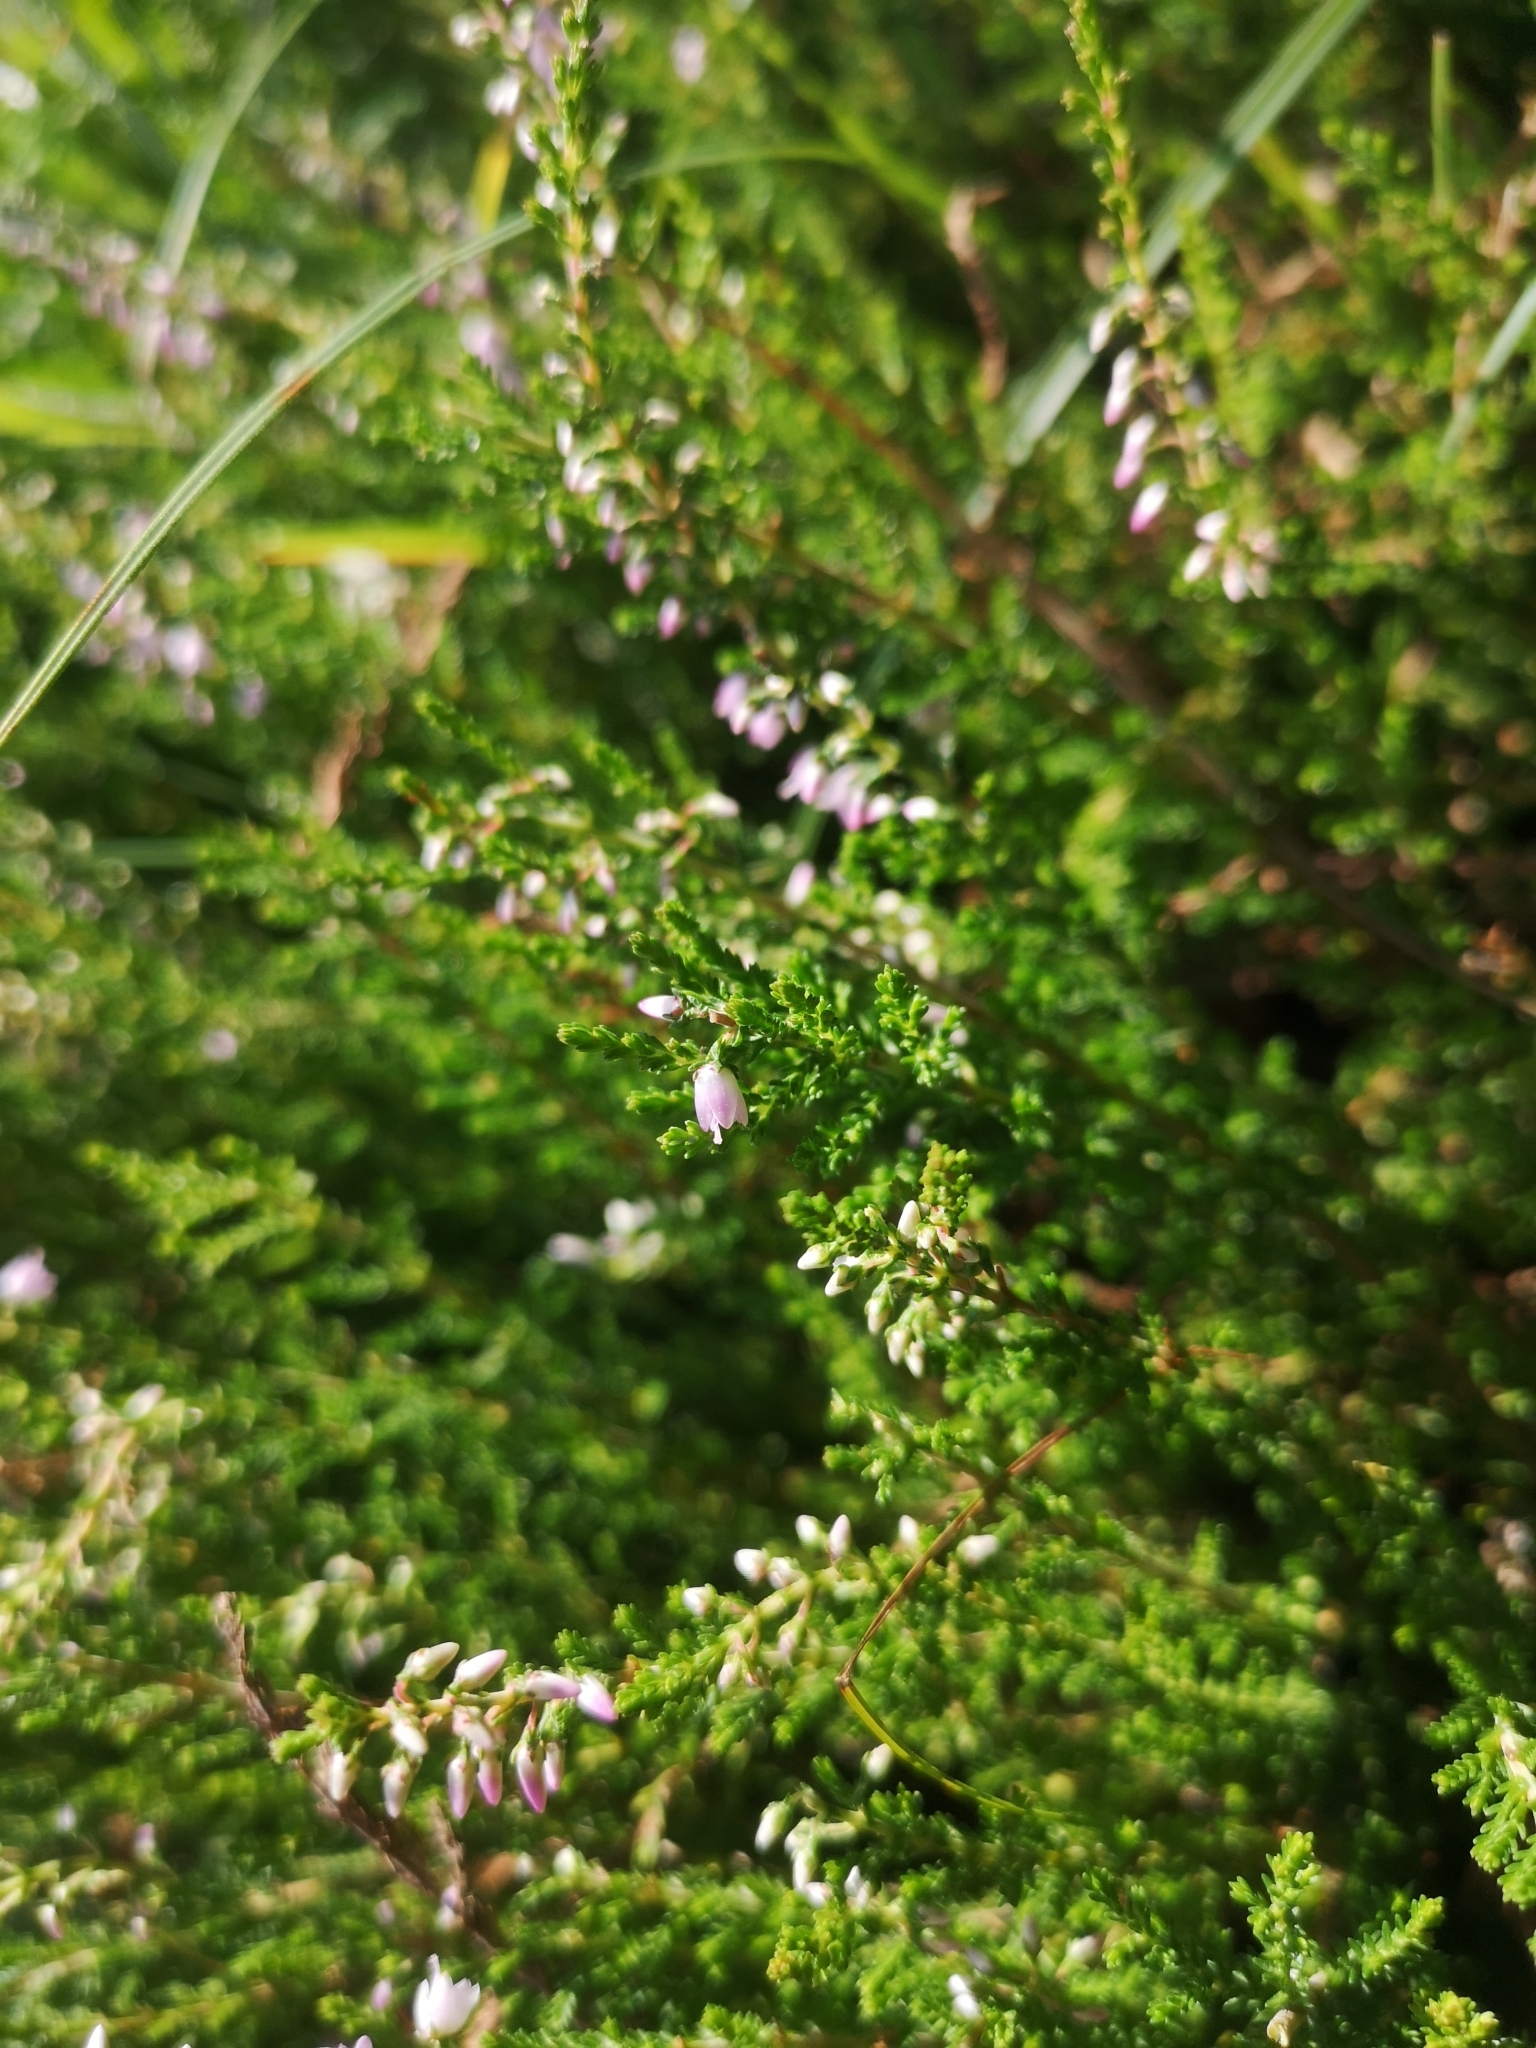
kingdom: Plantae
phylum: Tracheophyta
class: Magnoliopsida
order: Ericales
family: Ericaceae
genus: Calluna
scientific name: Calluna vulgaris
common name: Heather
